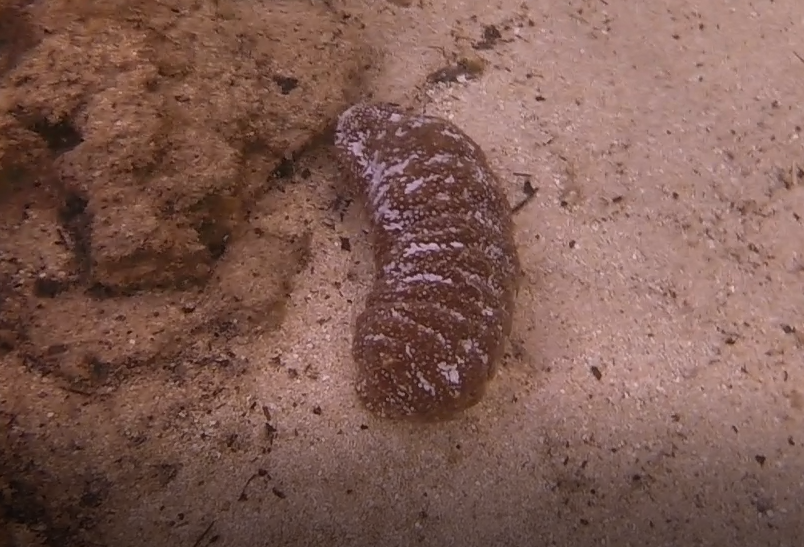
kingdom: Animalia
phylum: Echinodermata
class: Holothuroidea
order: Holothuriida
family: Holothuriidae
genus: Actinopyga
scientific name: Actinopyga varians
